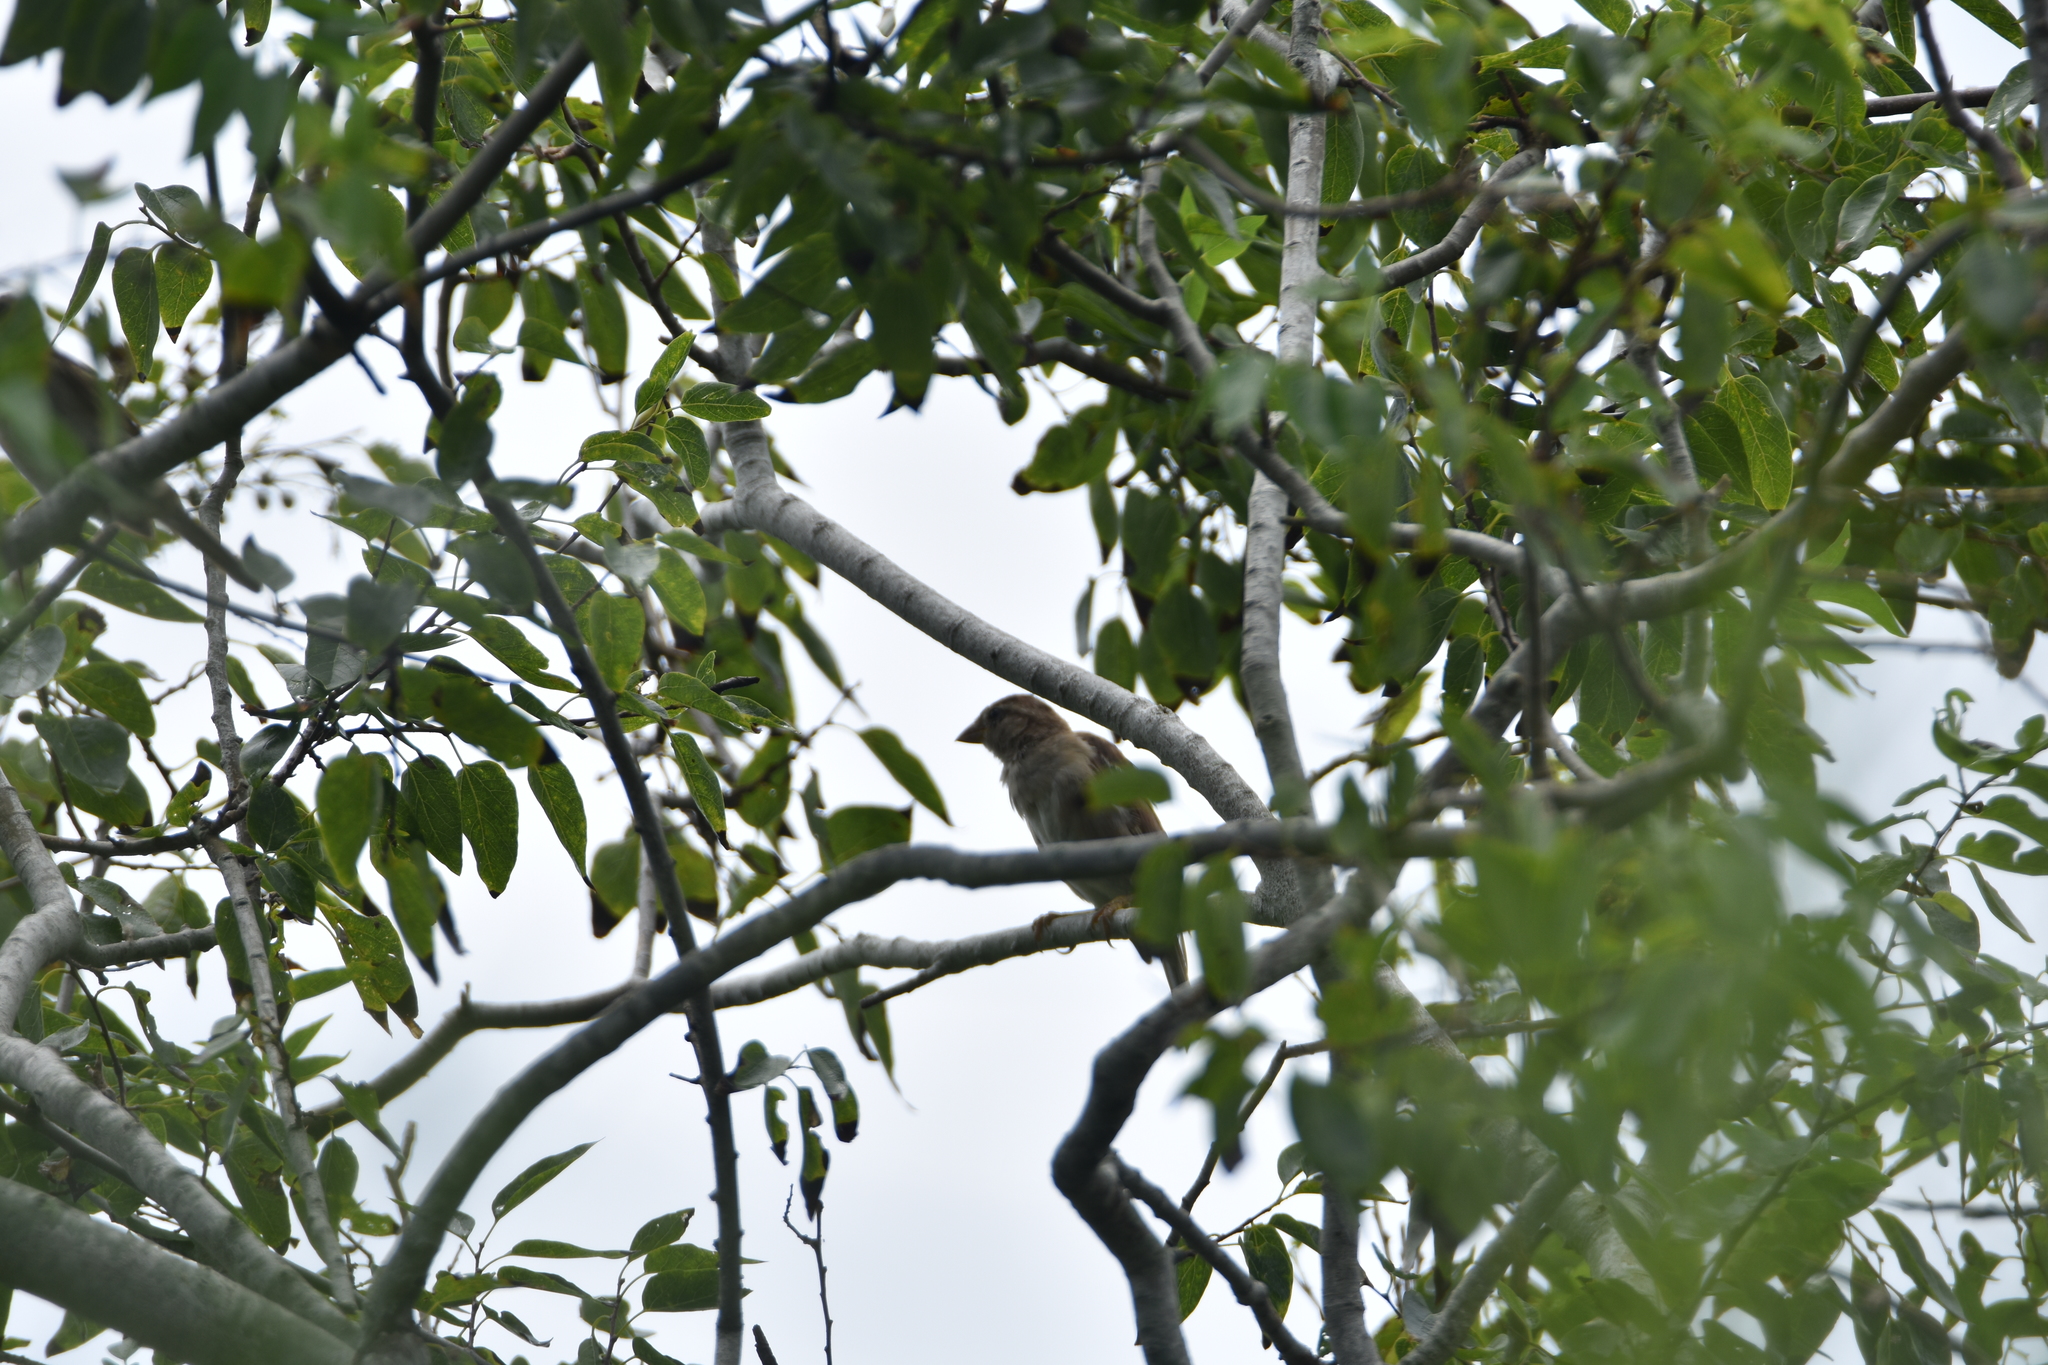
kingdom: Animalia
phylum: Chordata
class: Aves
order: Passeriformes
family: Passeridae
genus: Passer
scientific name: Passer domesticus
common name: House sparrow
